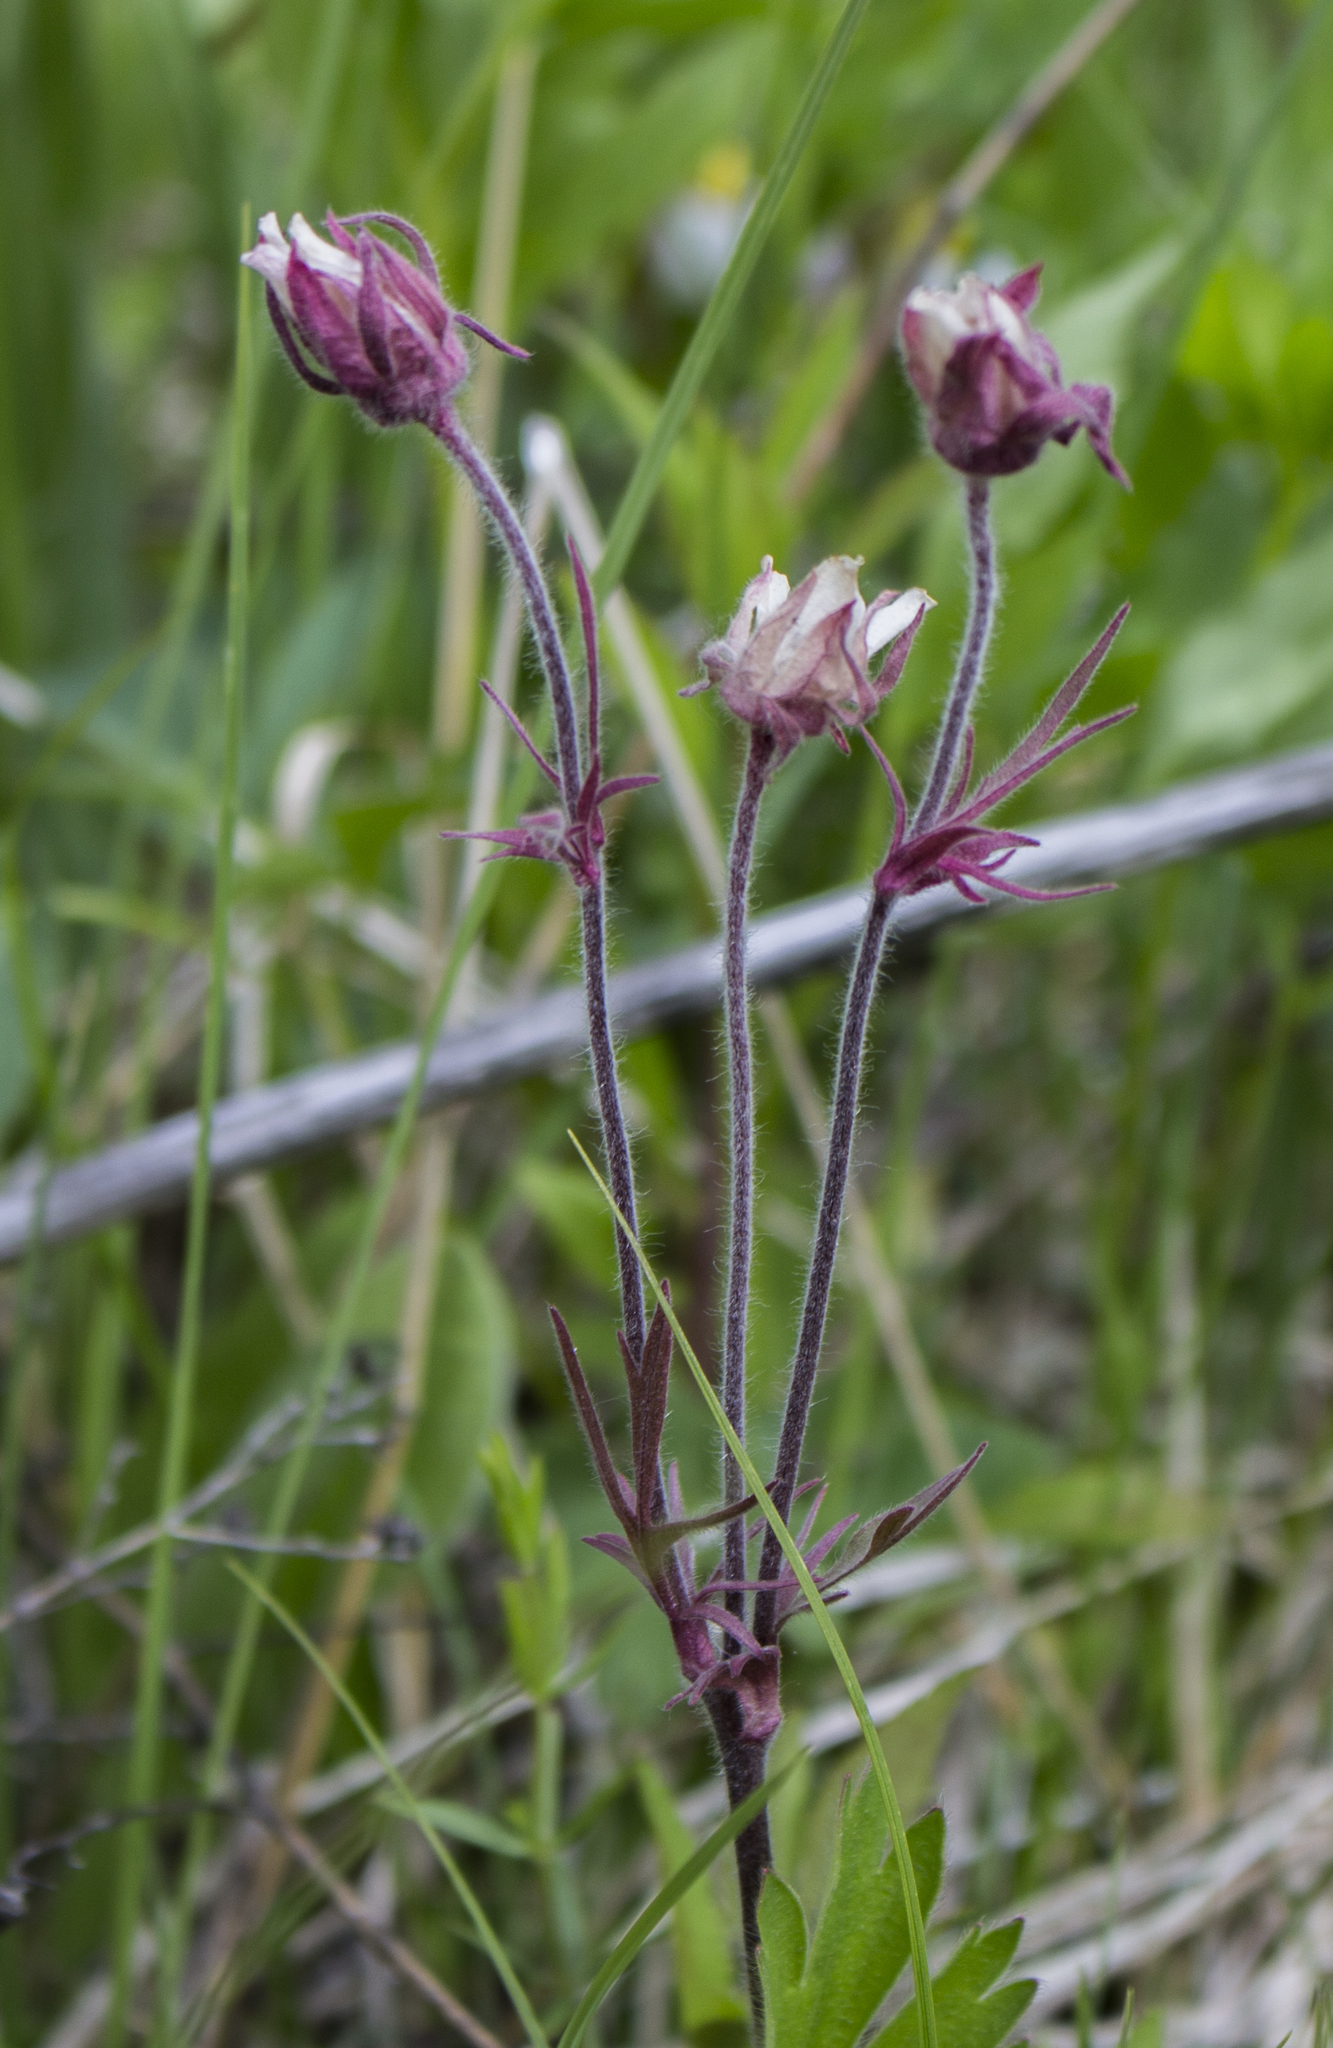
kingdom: Plantae
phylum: Tracheophyta
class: Magnoliopsida
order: Rosales
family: Rosaceae
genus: Geum
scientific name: Geum triflorum
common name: Old man's whiskers
